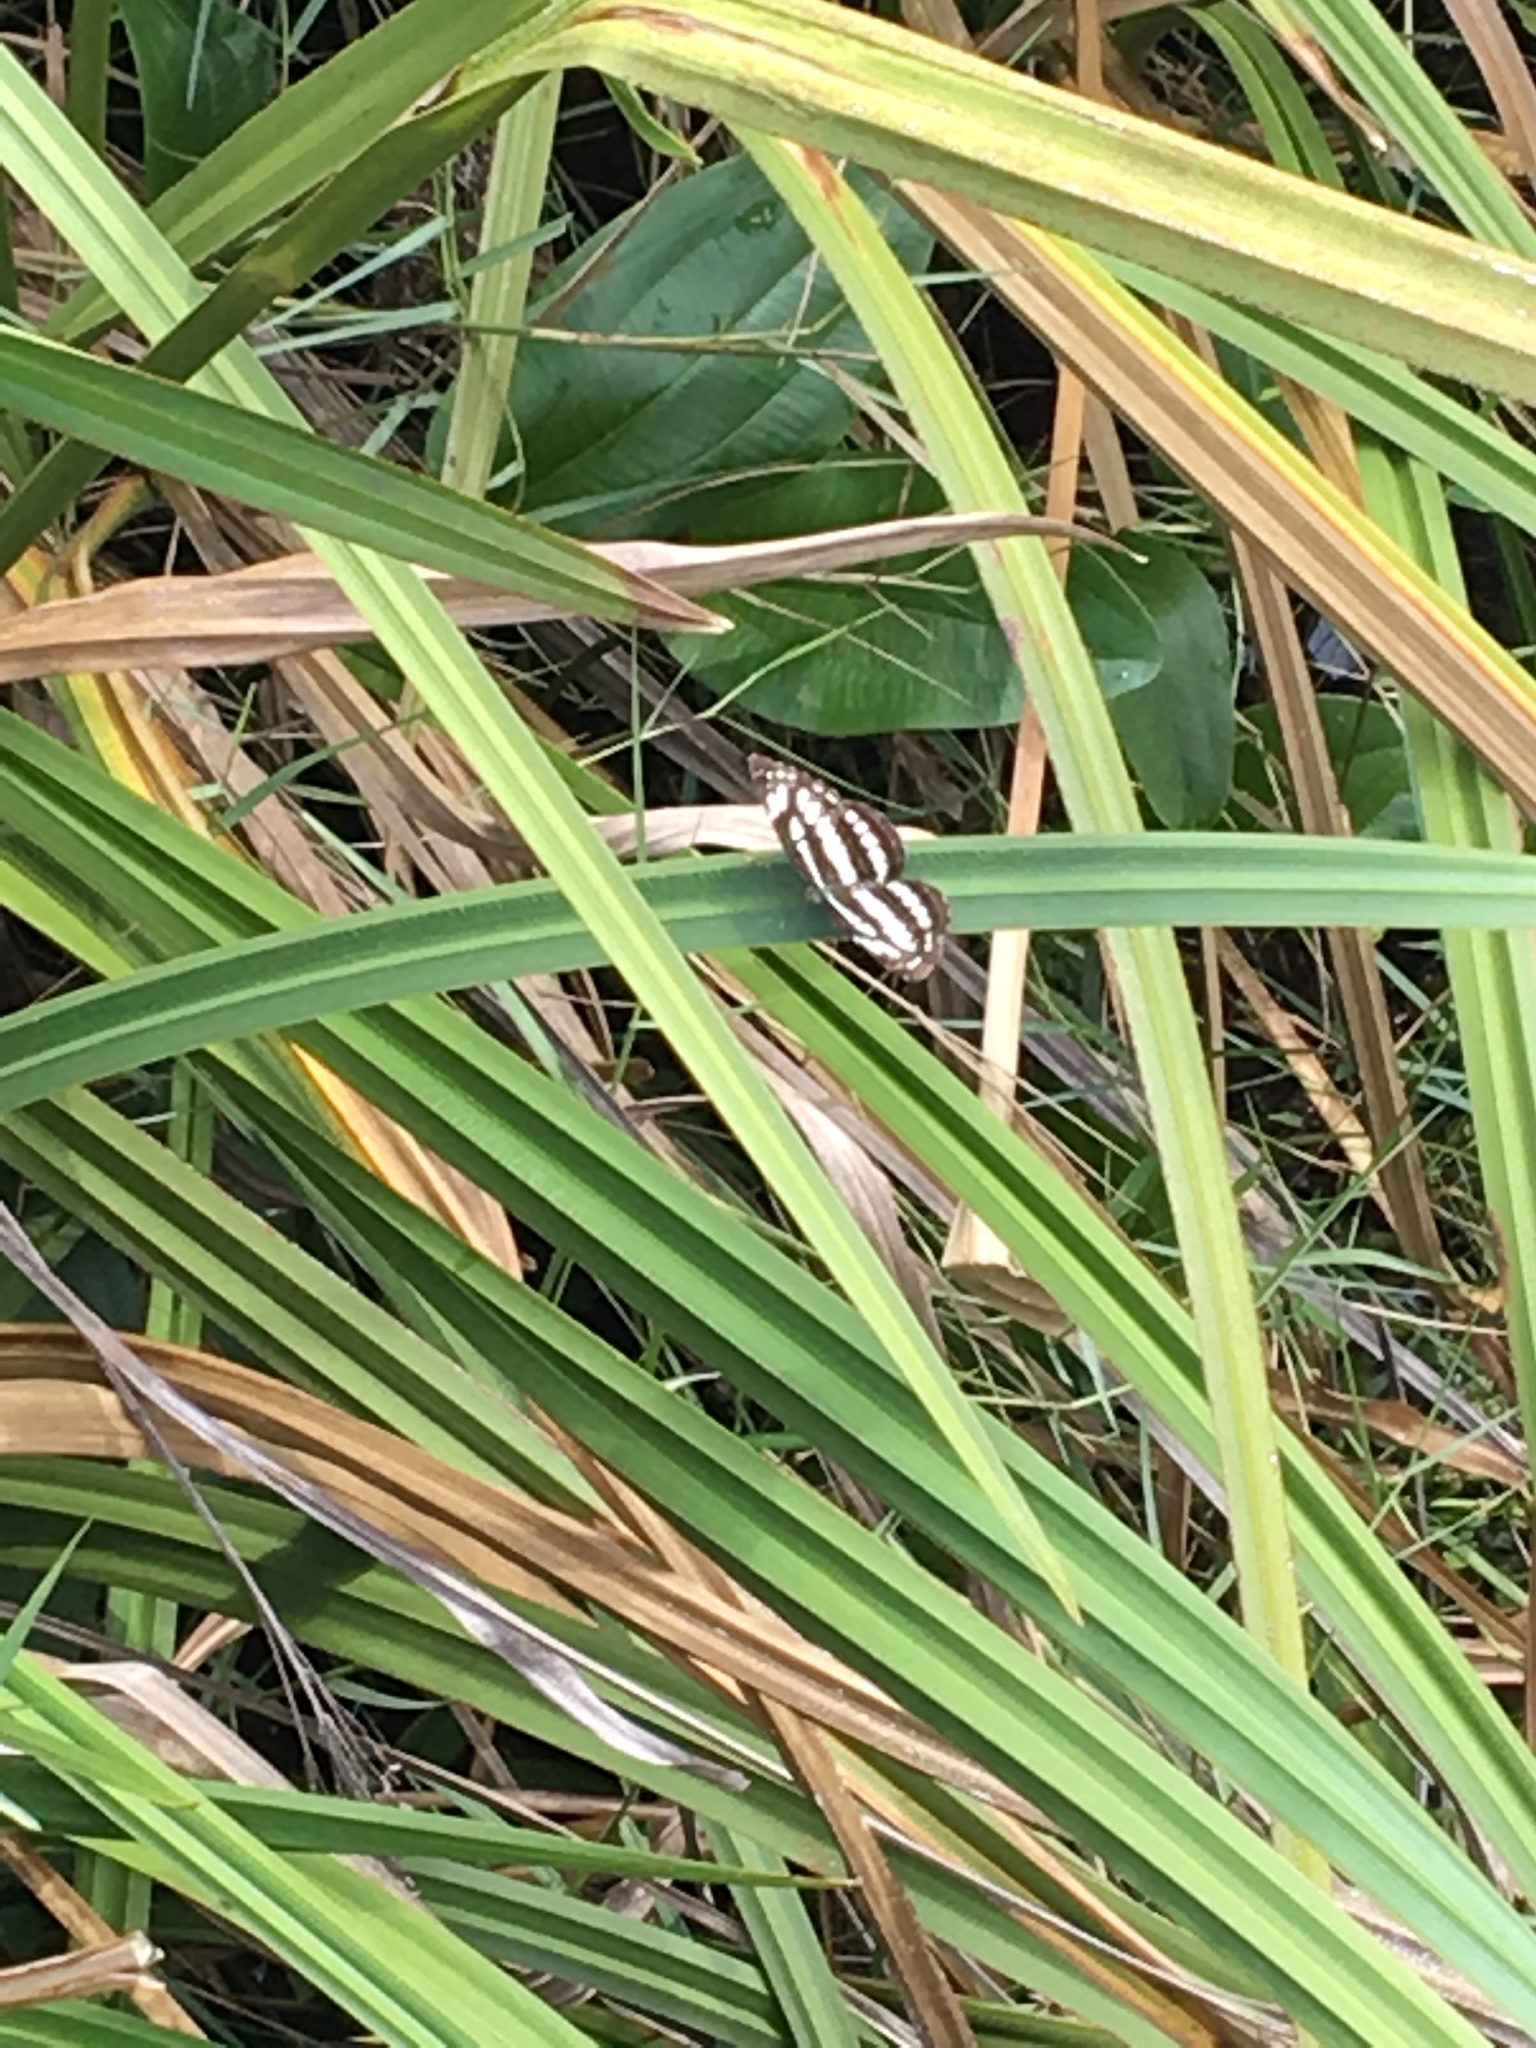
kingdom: Animalia
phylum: Arthropoda
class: Insecta
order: Lepidoptera
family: Nymphalidae
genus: Neptis
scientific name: Neptis hylas
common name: Common sailer
